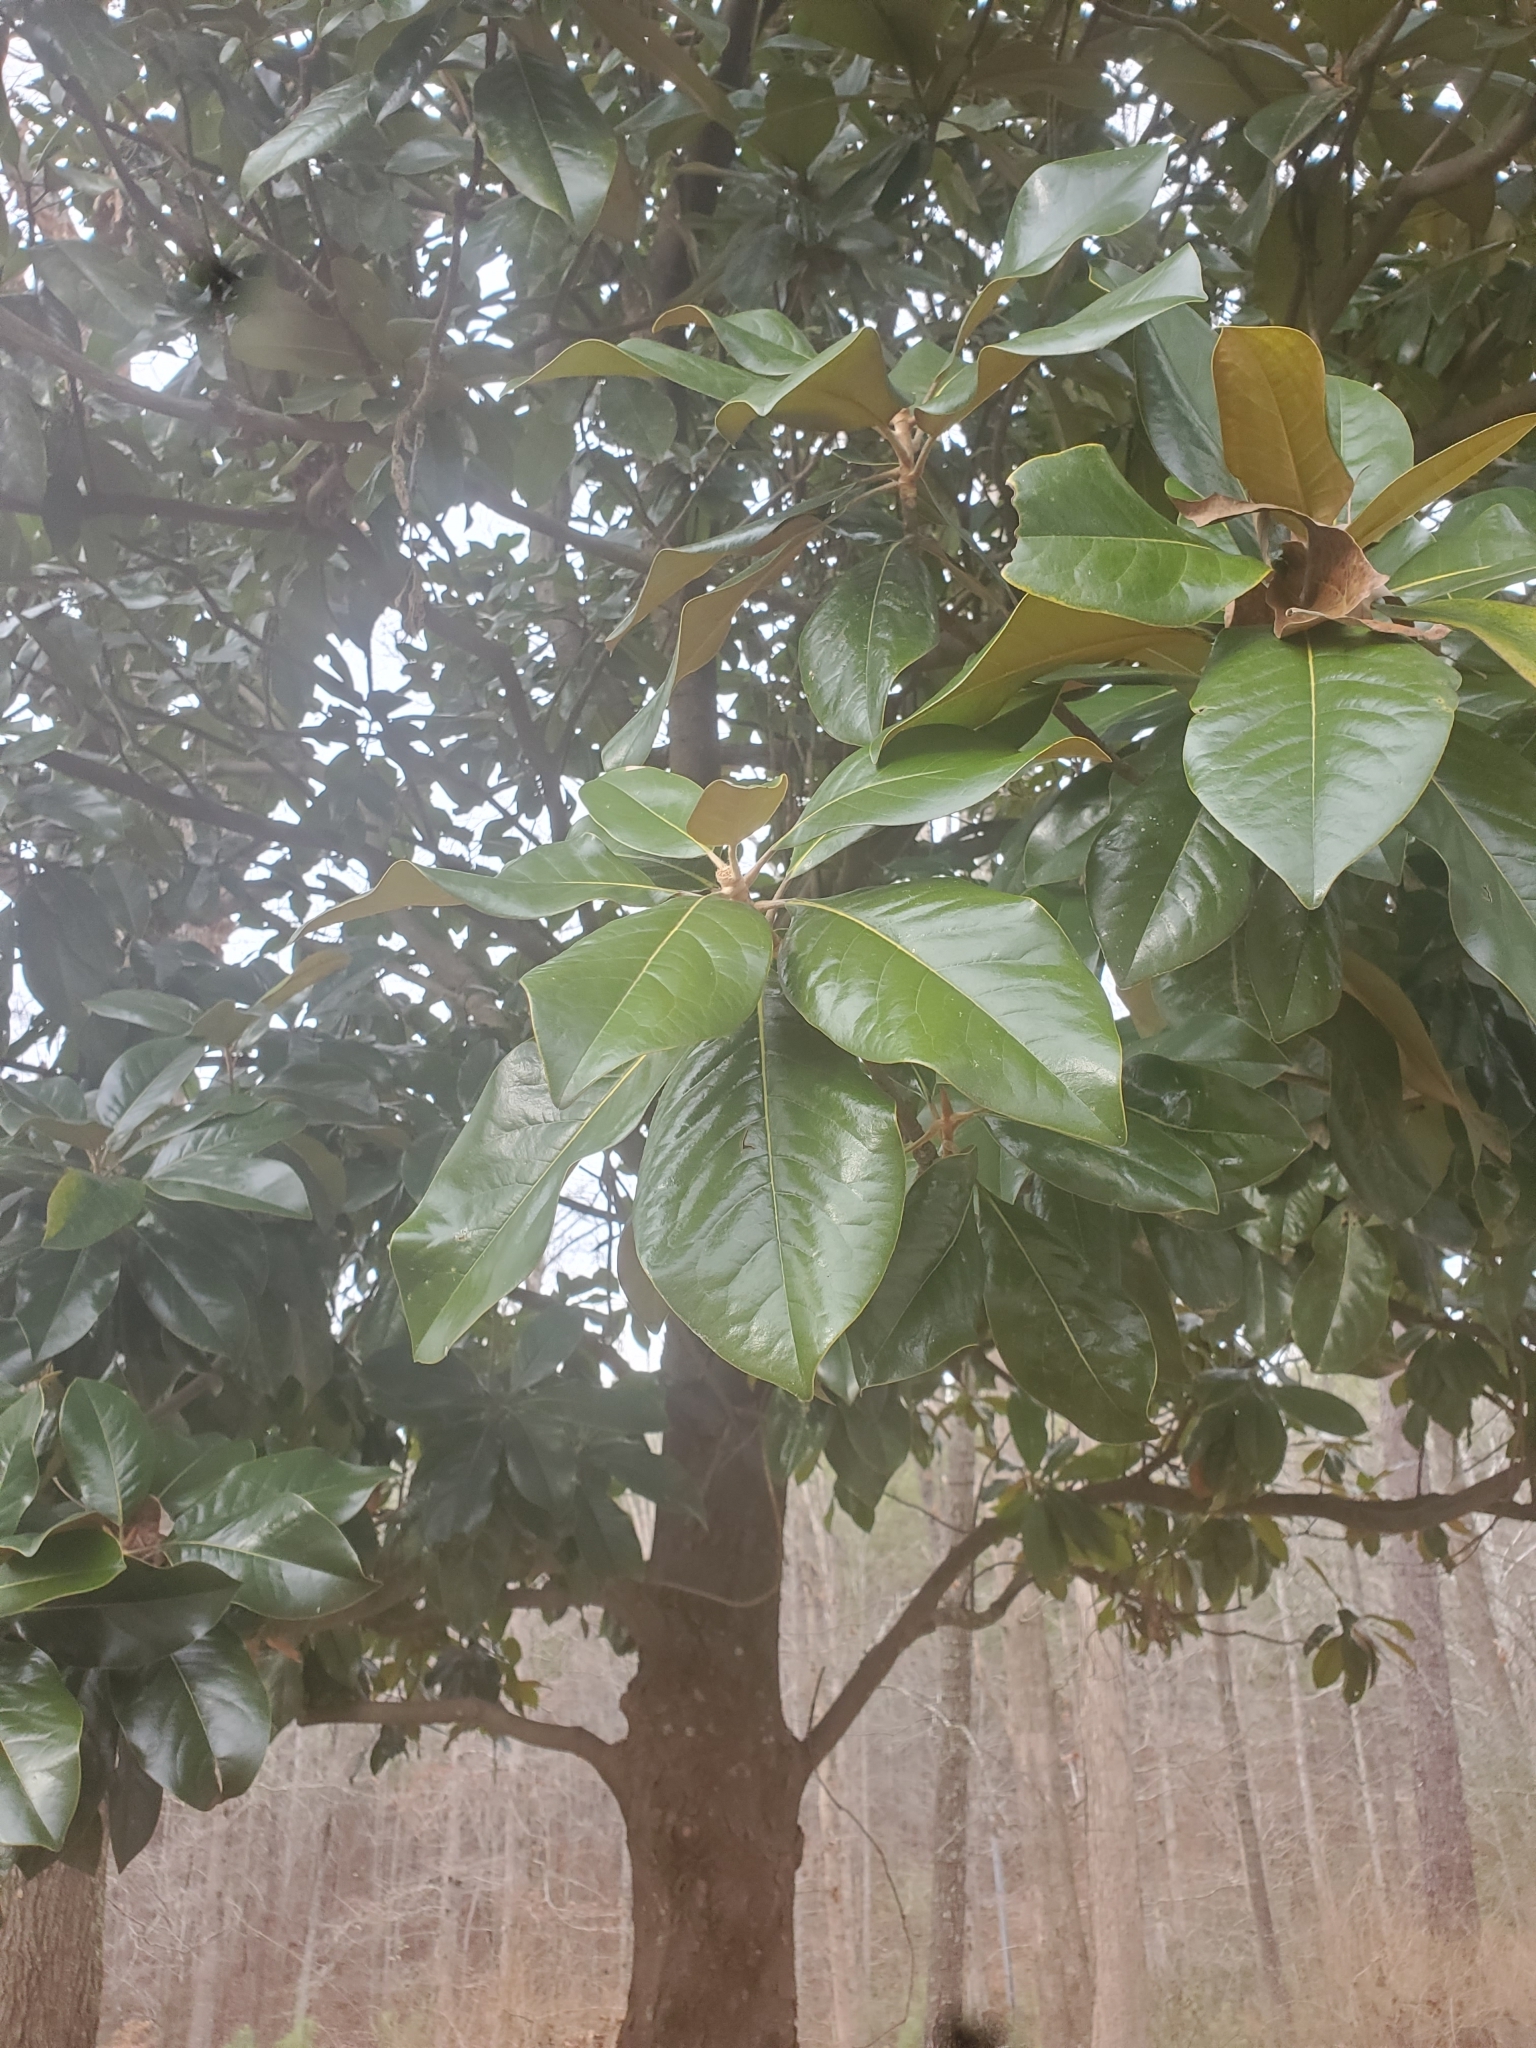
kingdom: Plantae
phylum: Tracheophyta
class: Magnoliopsida
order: Magnoliales
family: Magnoliaceae
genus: Magnolia
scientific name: Magnolia grandiflora
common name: Southern magnolia
